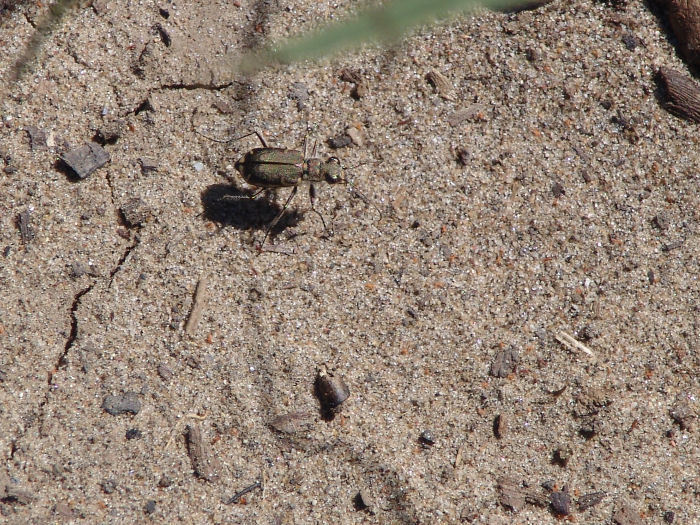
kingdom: Animalia
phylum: Arthropoda
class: Insecta
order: Coleoptera
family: Carabidae
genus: Cicindela
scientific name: Cicindela repanda
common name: Bronzed tiger beetle
